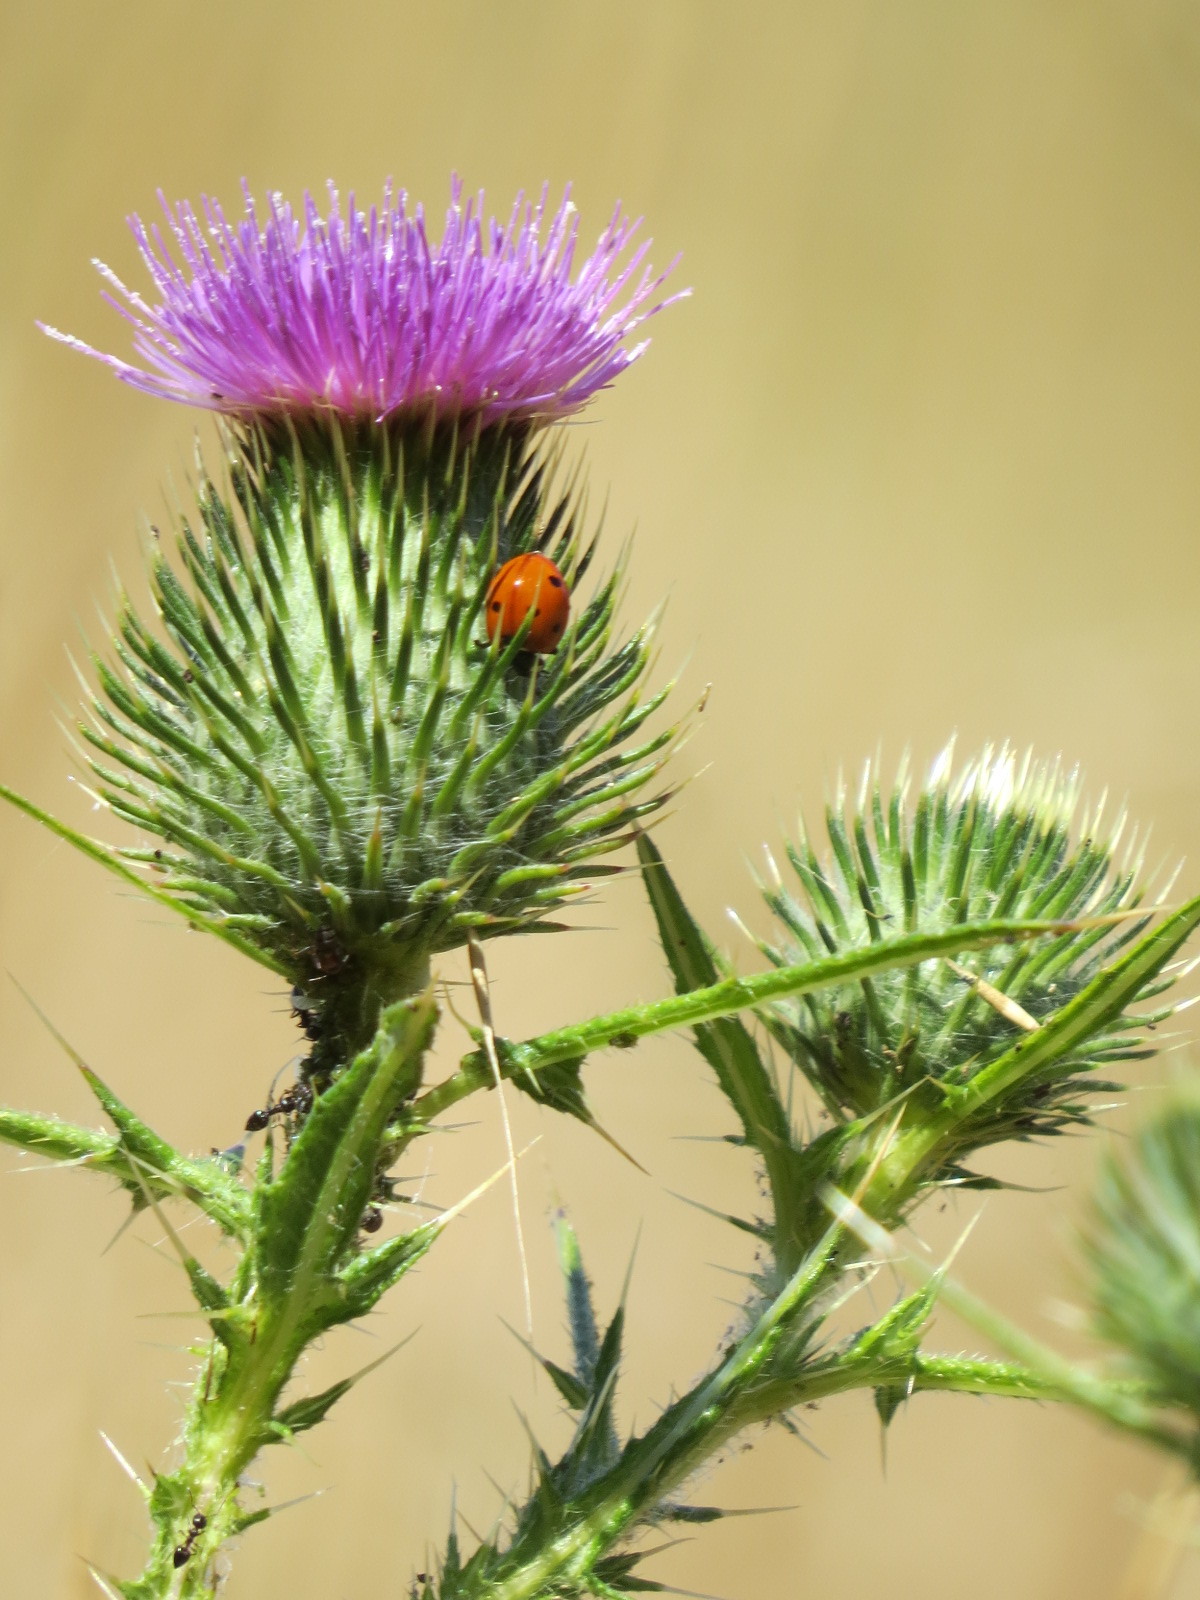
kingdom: Plantae
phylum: Tracheophyta
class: Magnoliopsida
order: Asterales
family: Asteraceae
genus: Cirsium
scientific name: Cirsium vulgare
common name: Bull thistle
